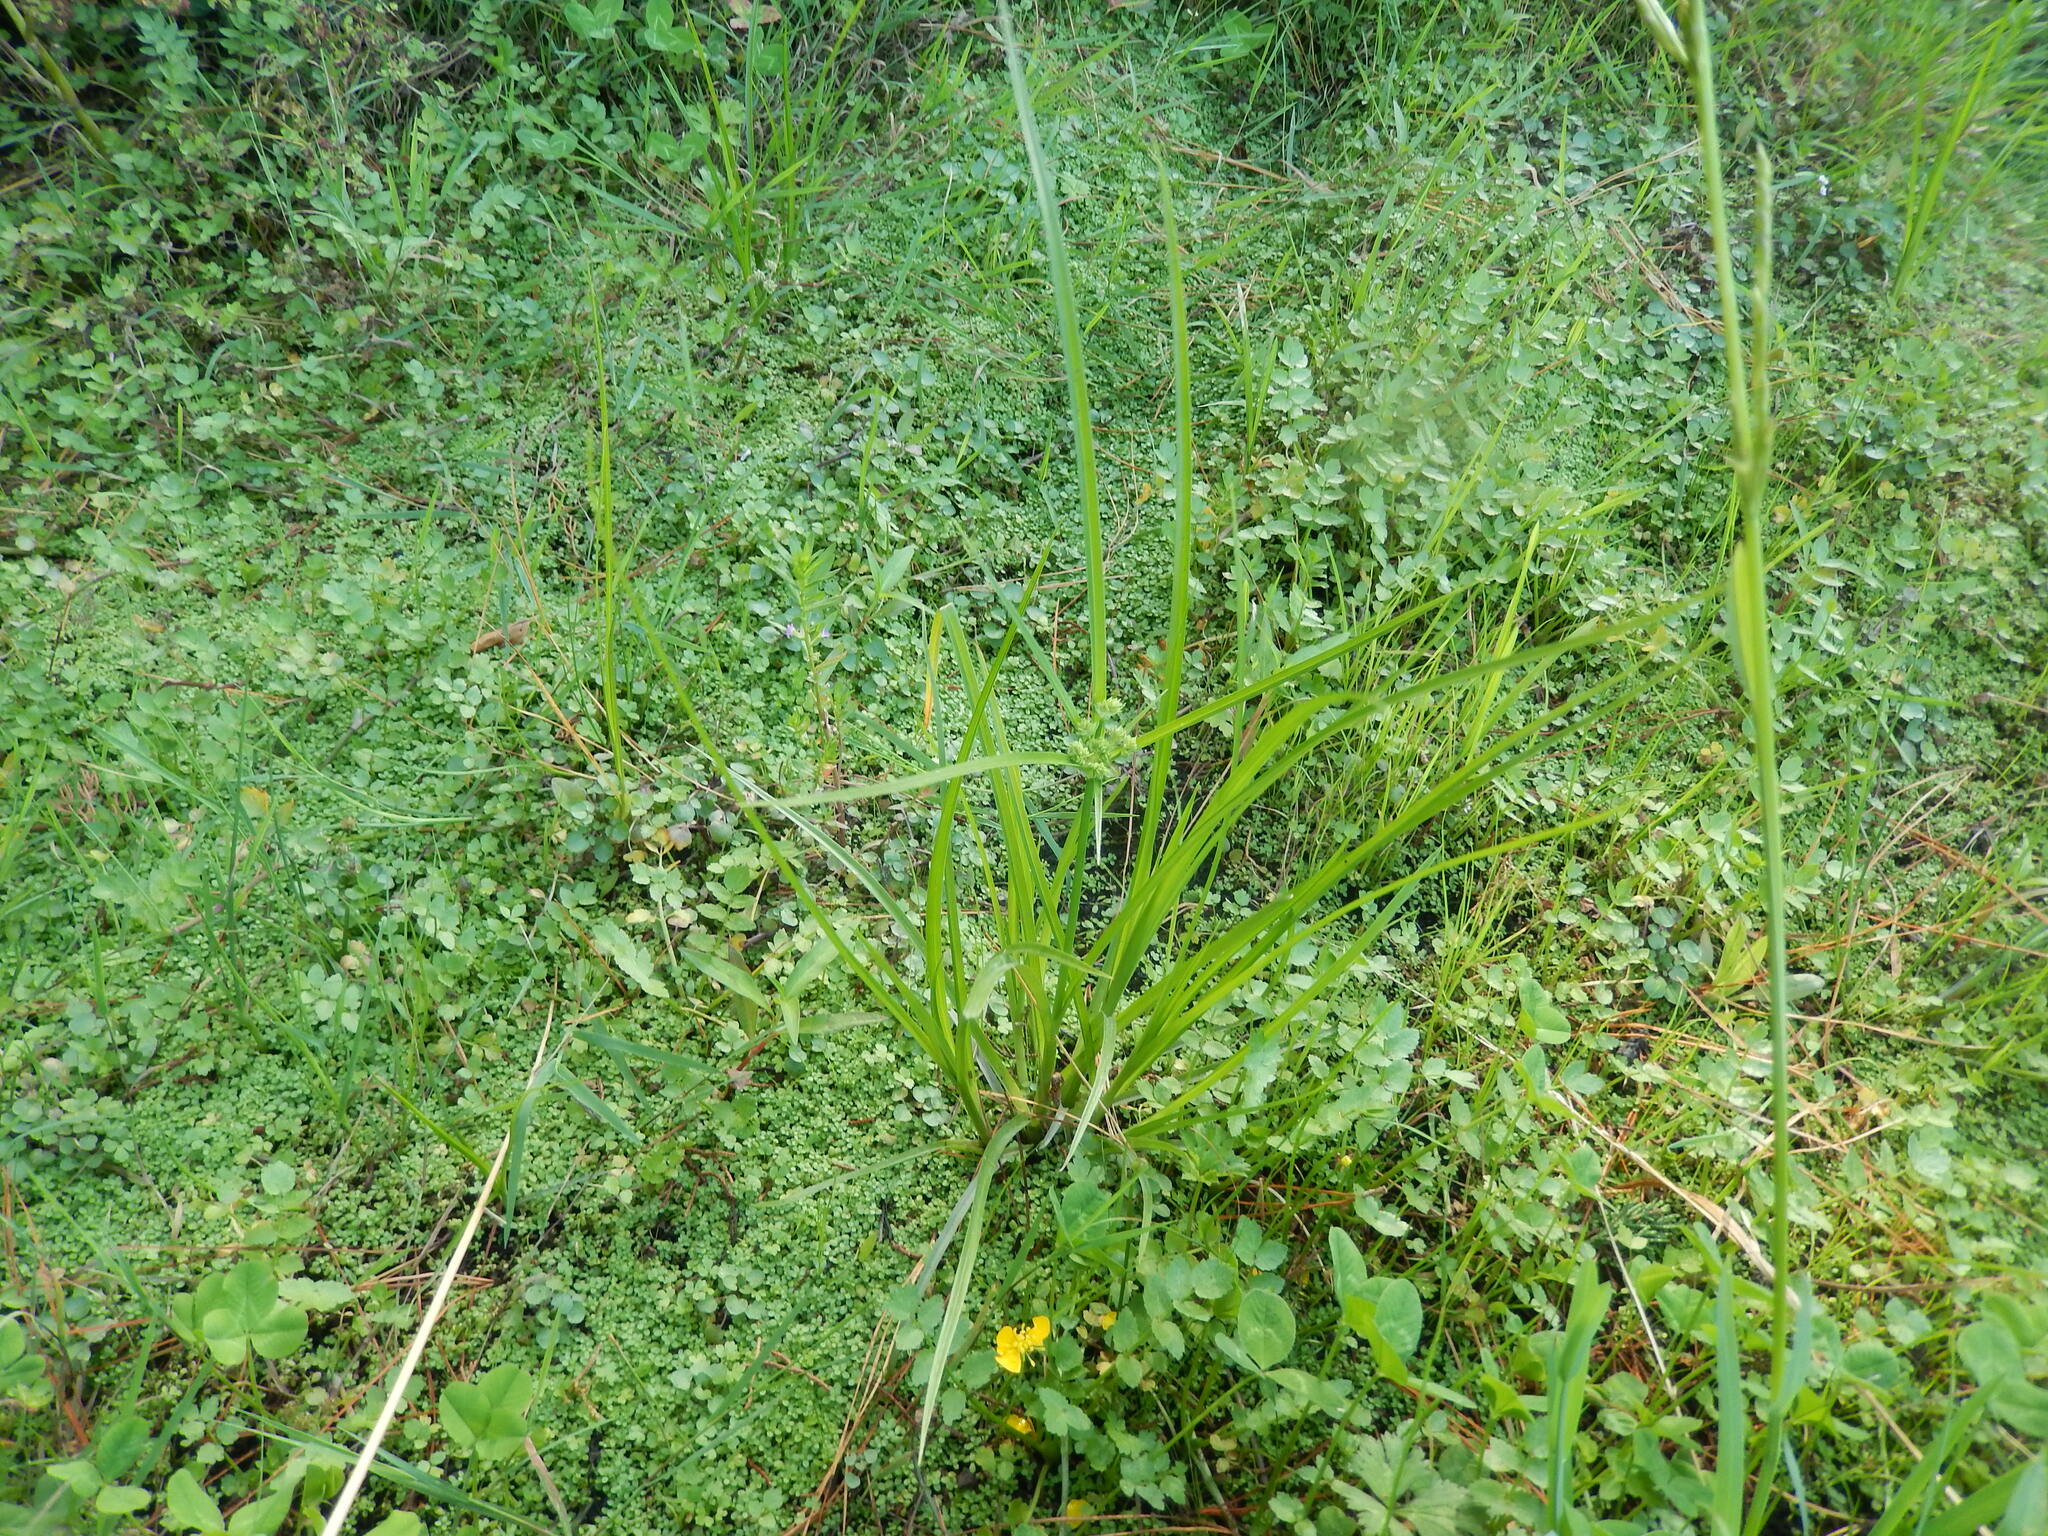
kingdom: Plantae
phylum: Tracheophyta
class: Liliopsida
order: Poales
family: Cyperaceae
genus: Cyperus
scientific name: Cyperus eragrostis
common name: Tall flatsedge
